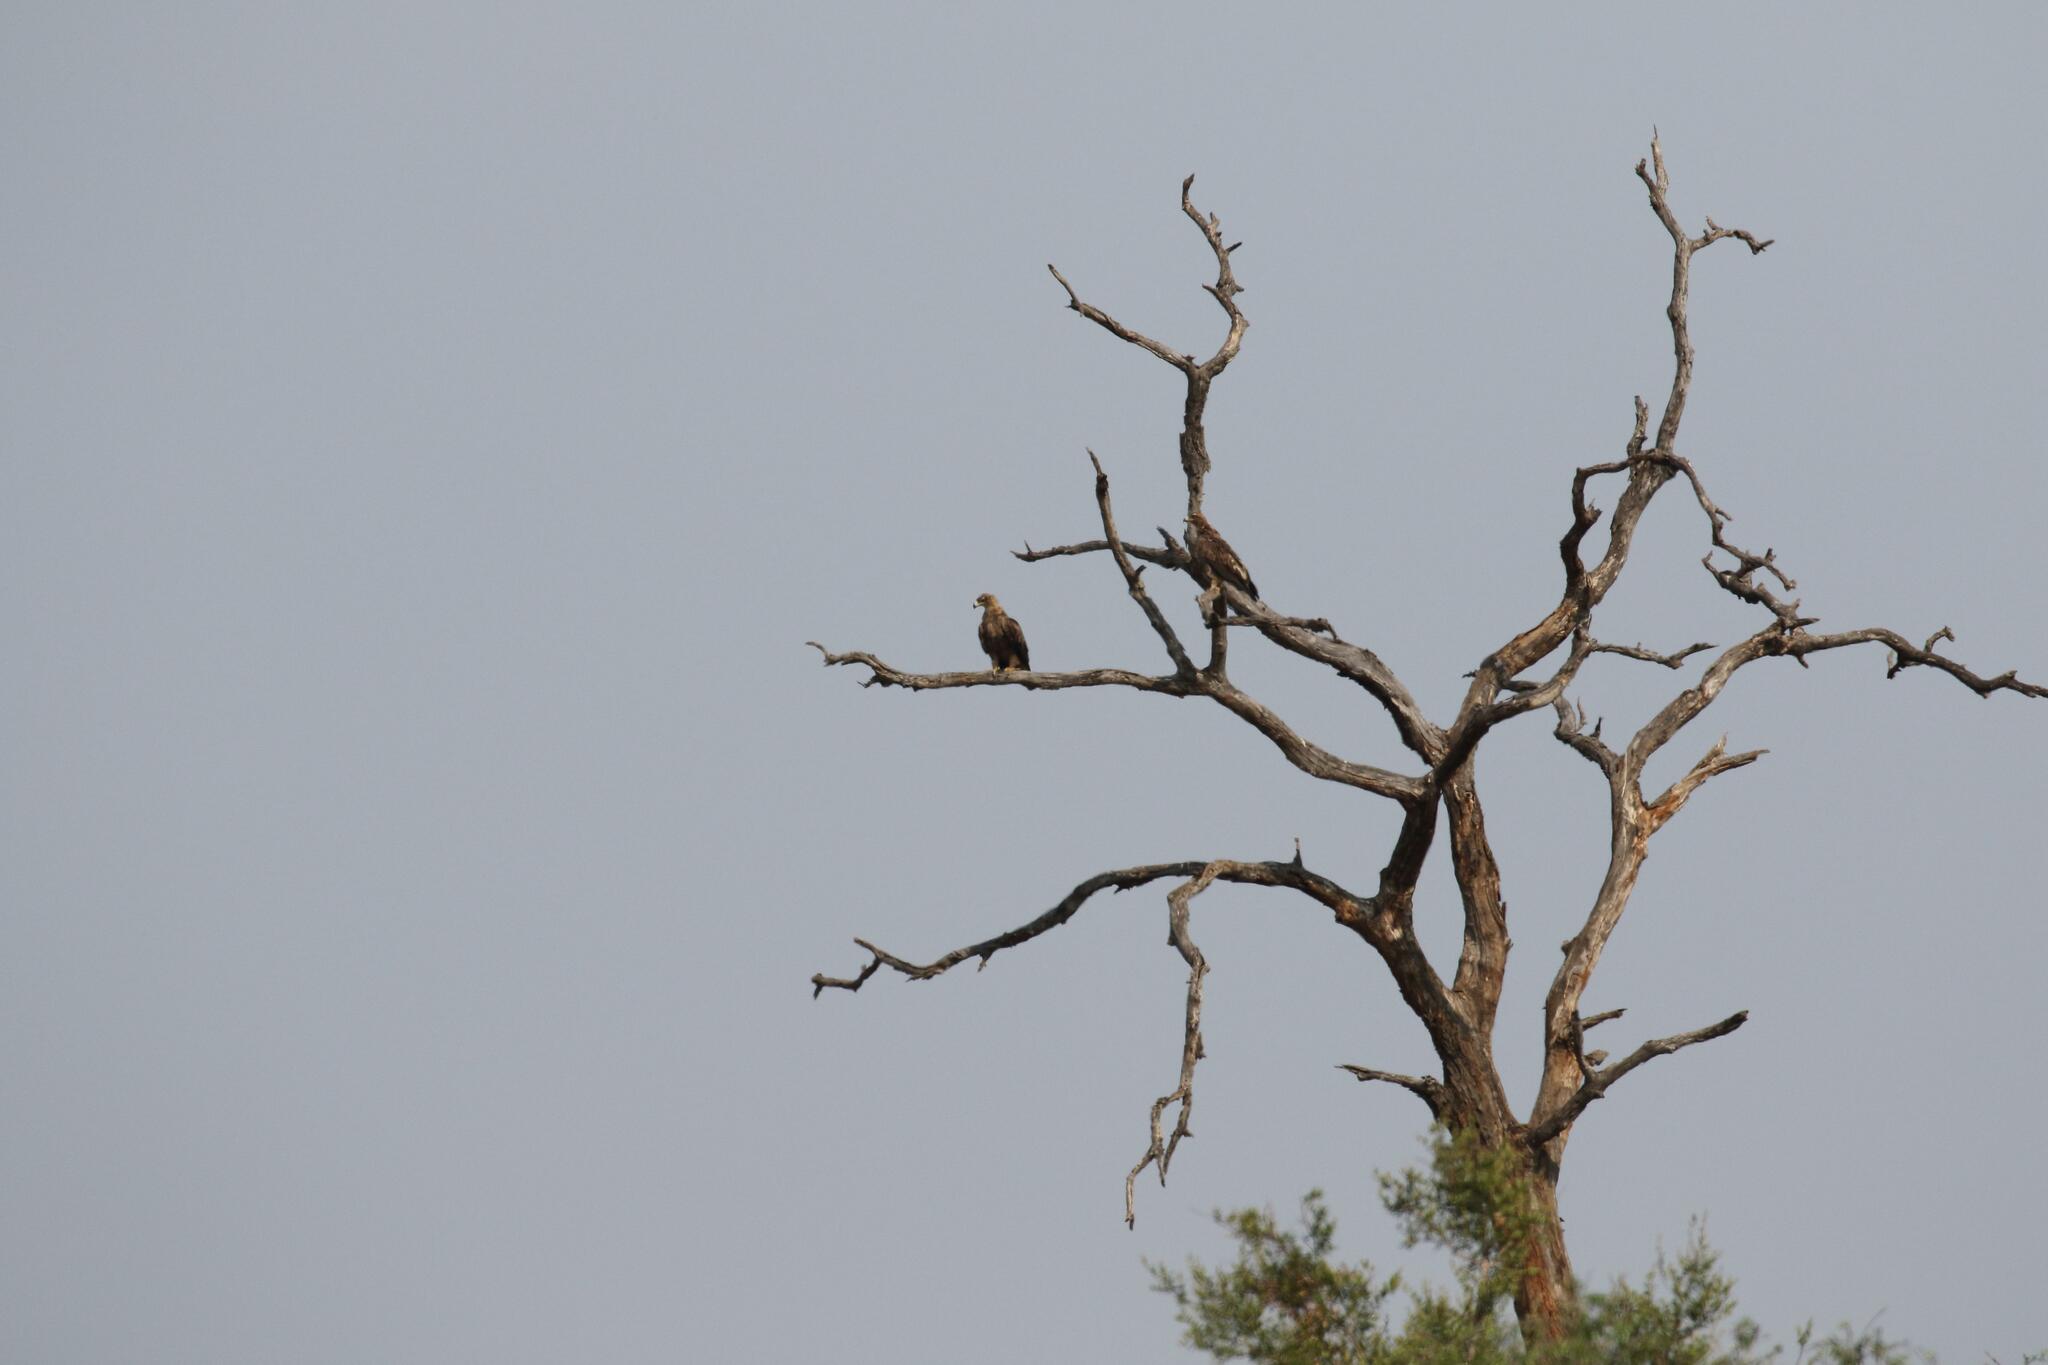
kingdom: Animalia
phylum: Chordata
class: Aves
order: Accipitriformes
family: Accipitridae
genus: Aquila
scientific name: Aquila rapax
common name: Tawny eagle
